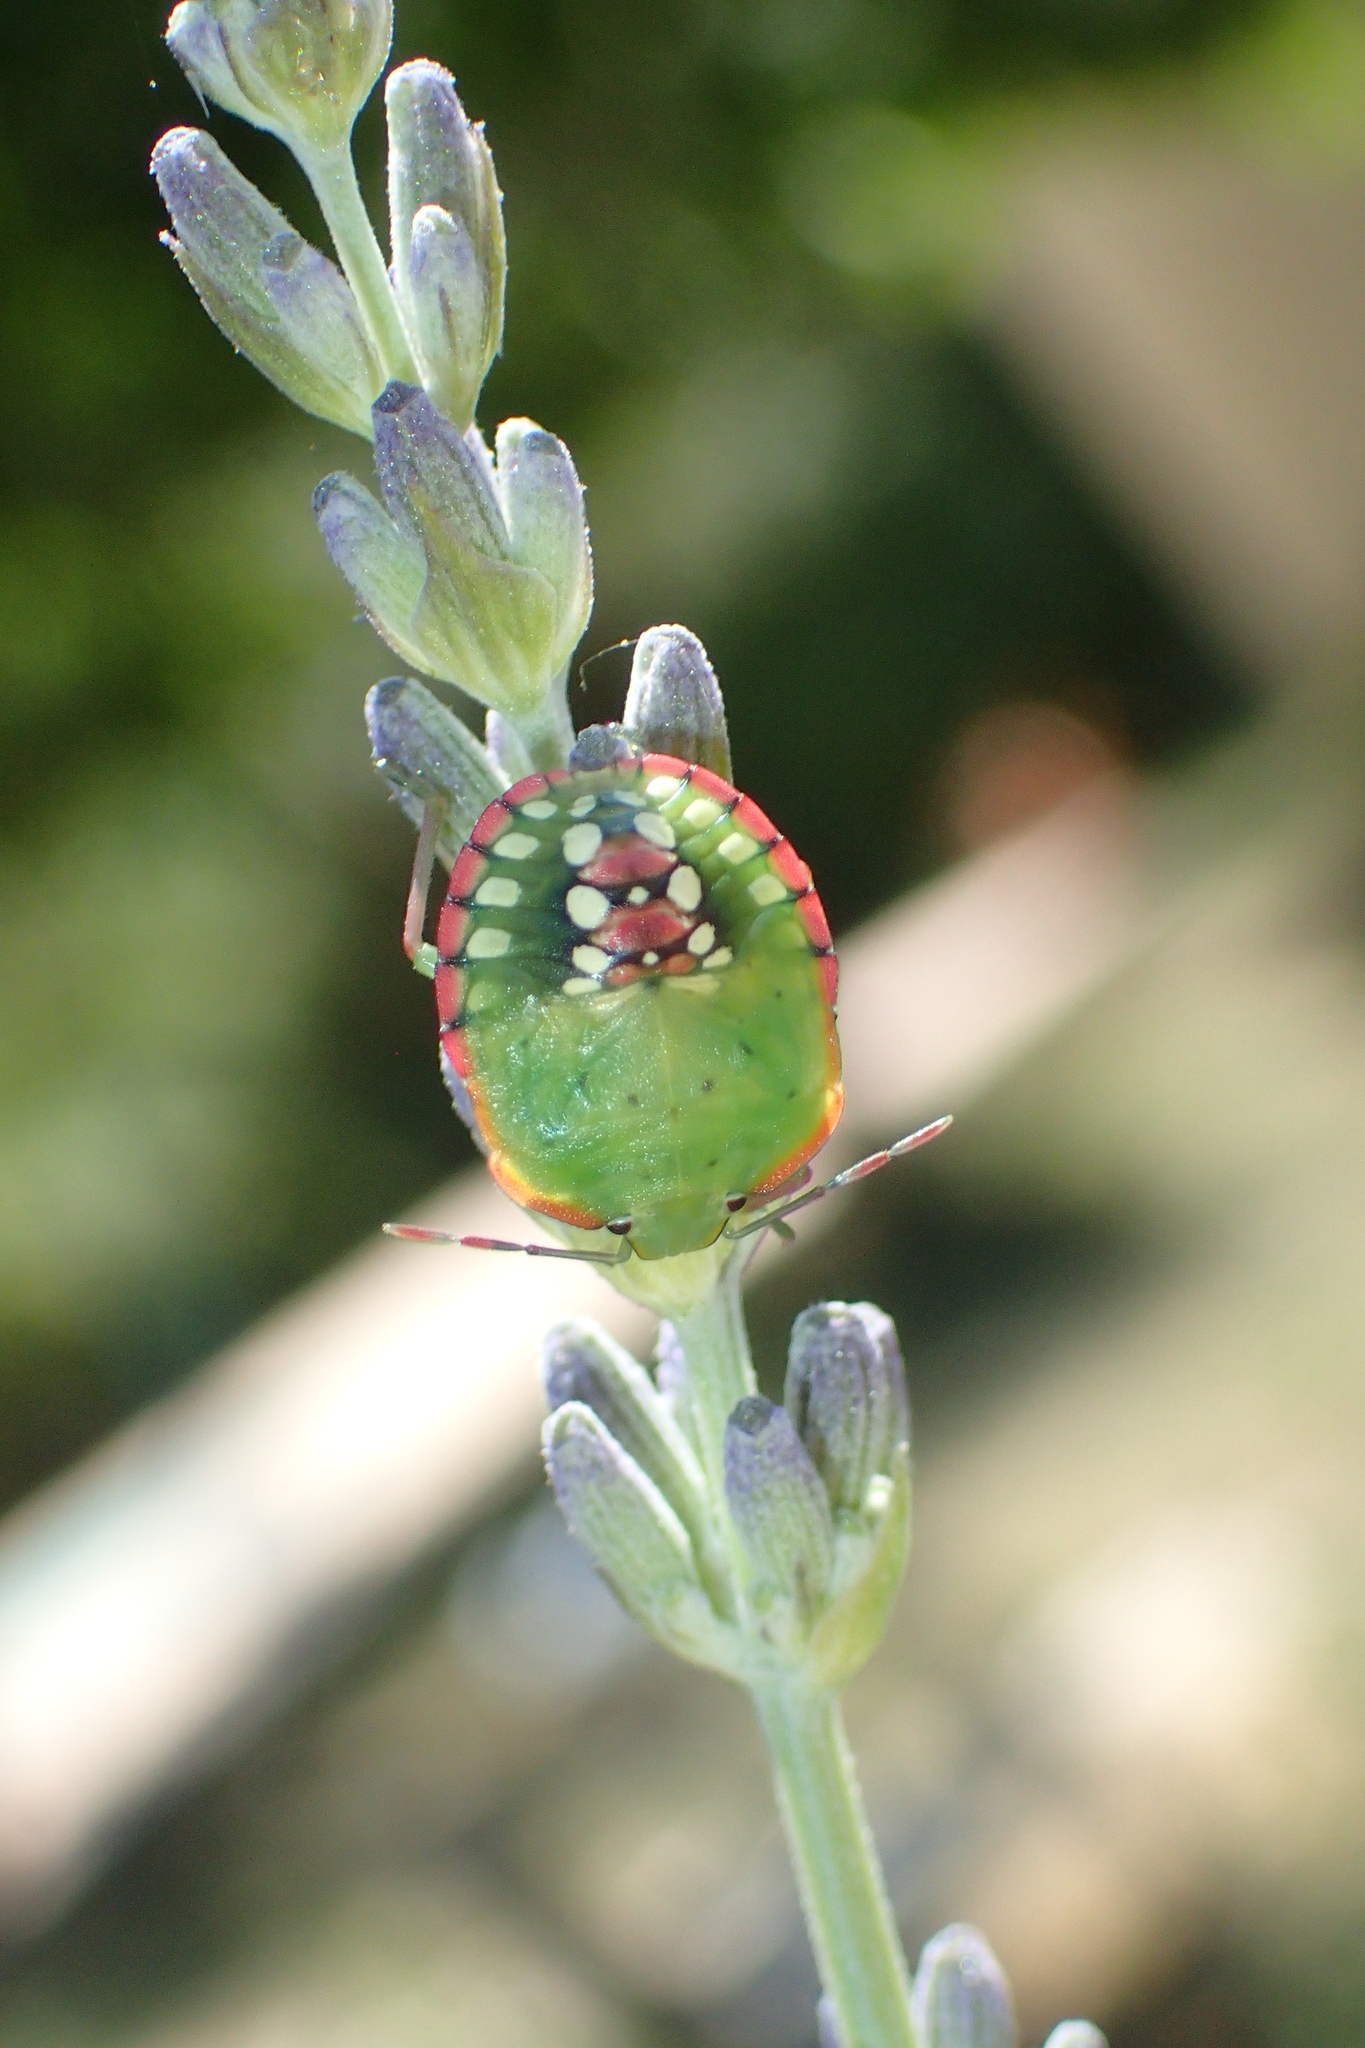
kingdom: Animalia
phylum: Arthropoda
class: Insecta
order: Hemiptera
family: Pentatomidae
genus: Nezara
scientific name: Nezara viridula
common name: Southern green stink bug
